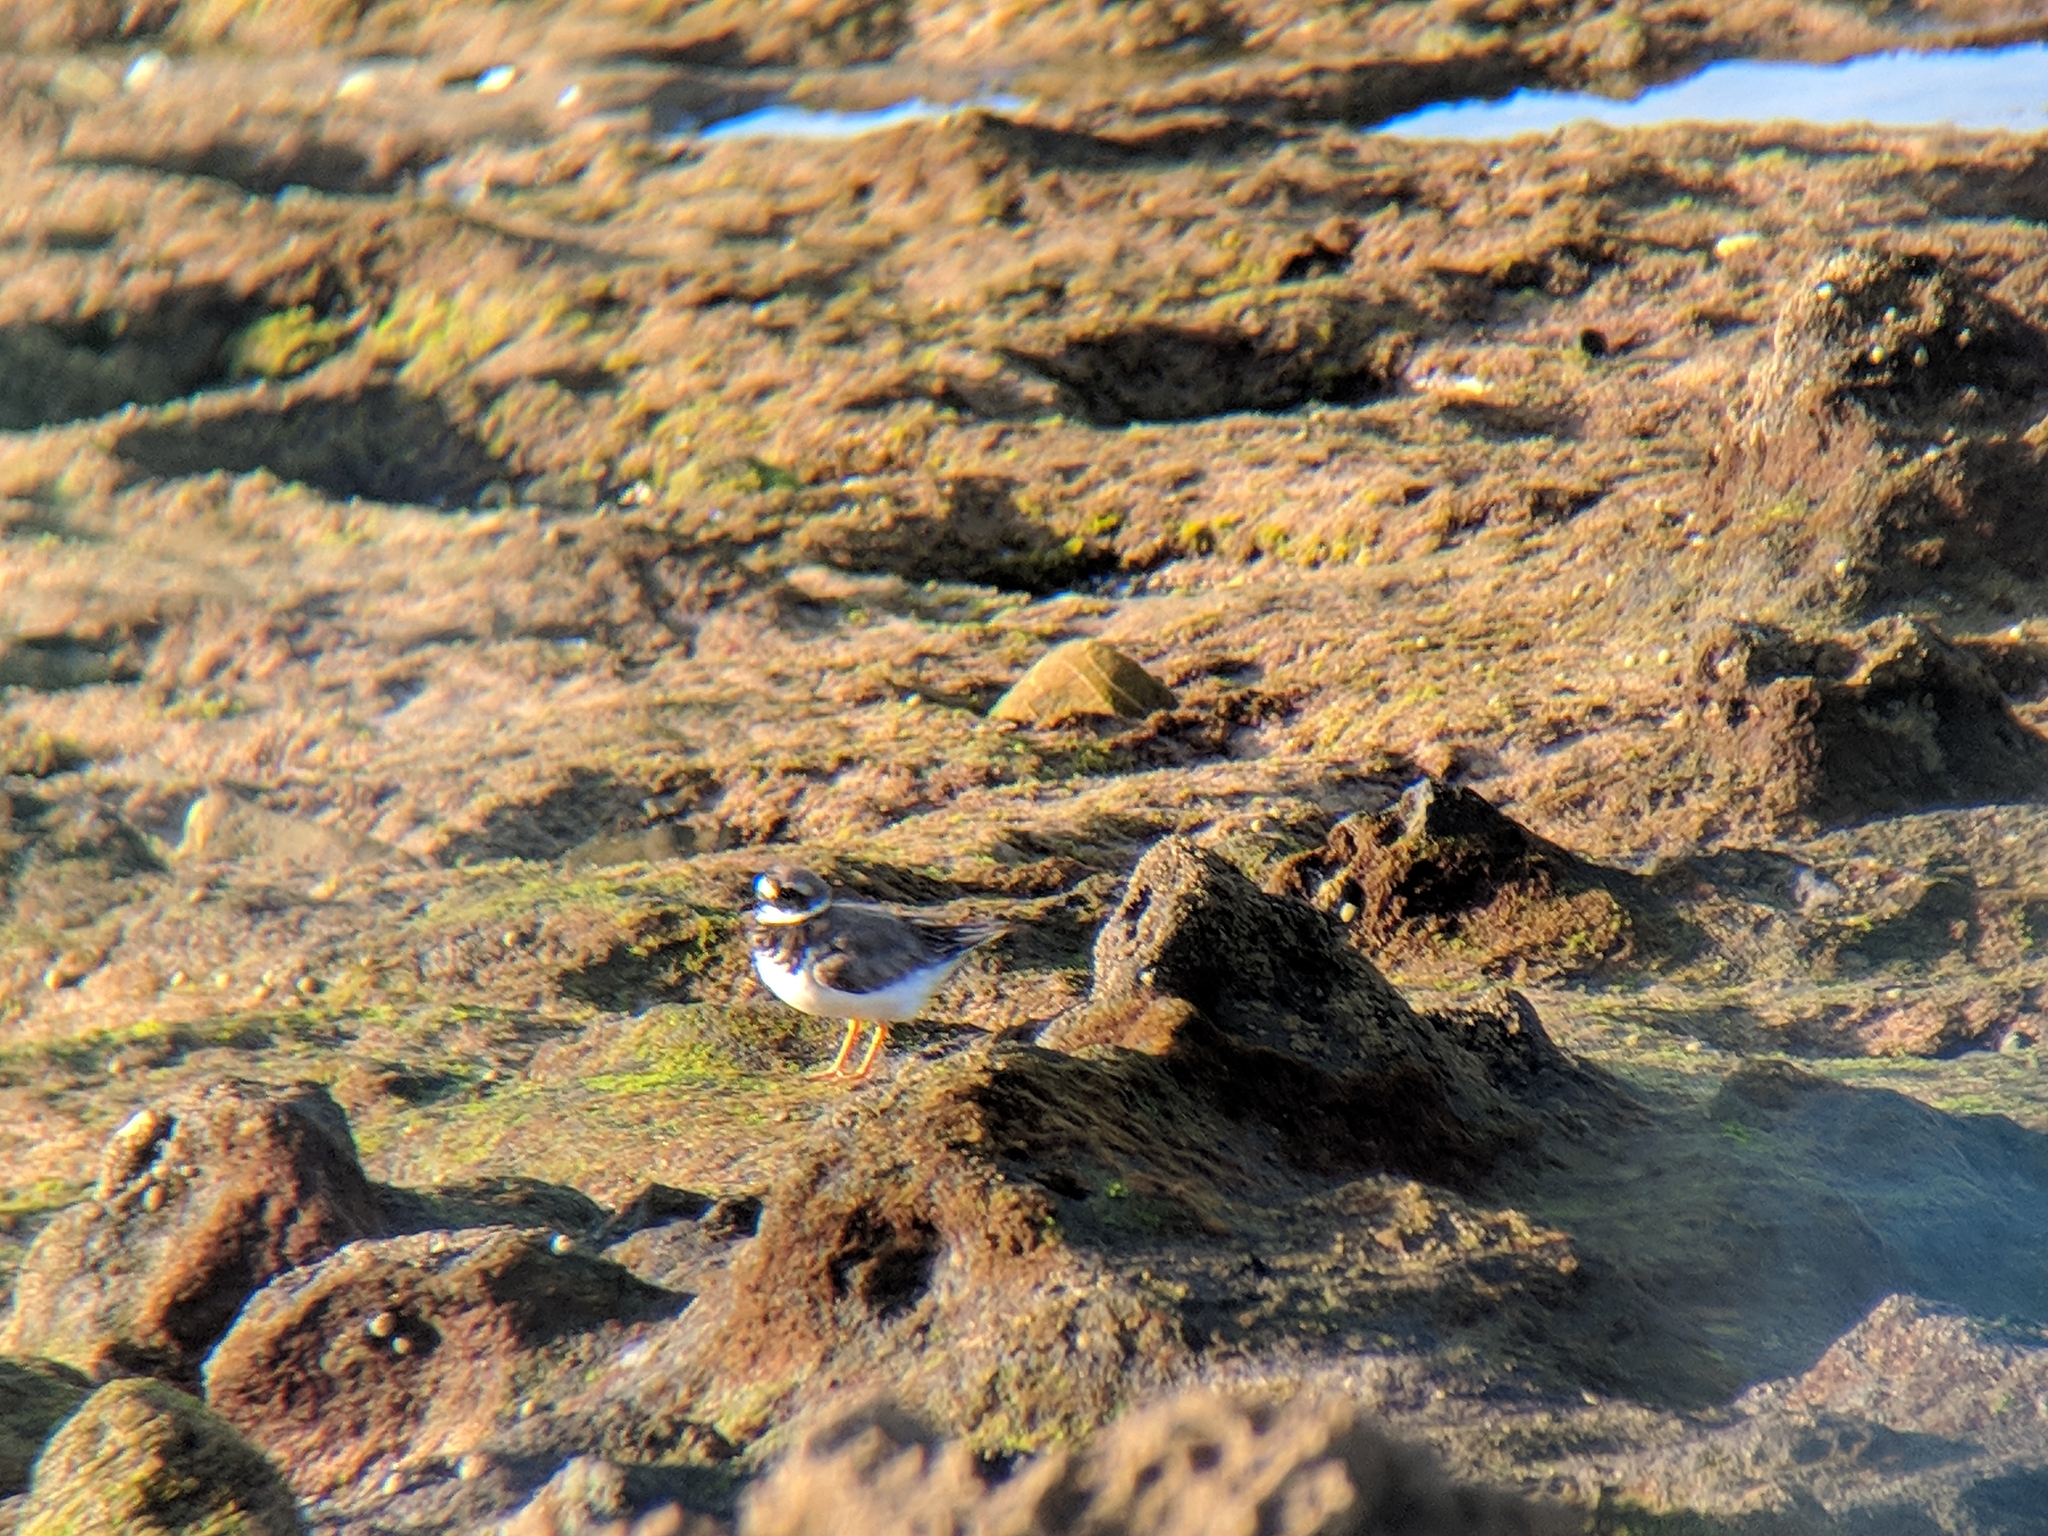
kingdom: Animalia
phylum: Chordata
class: Aves
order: Charadriiformes
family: Charadriidae
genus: Charadrius
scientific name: Charadrius hiaticula
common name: Common ringed plover
